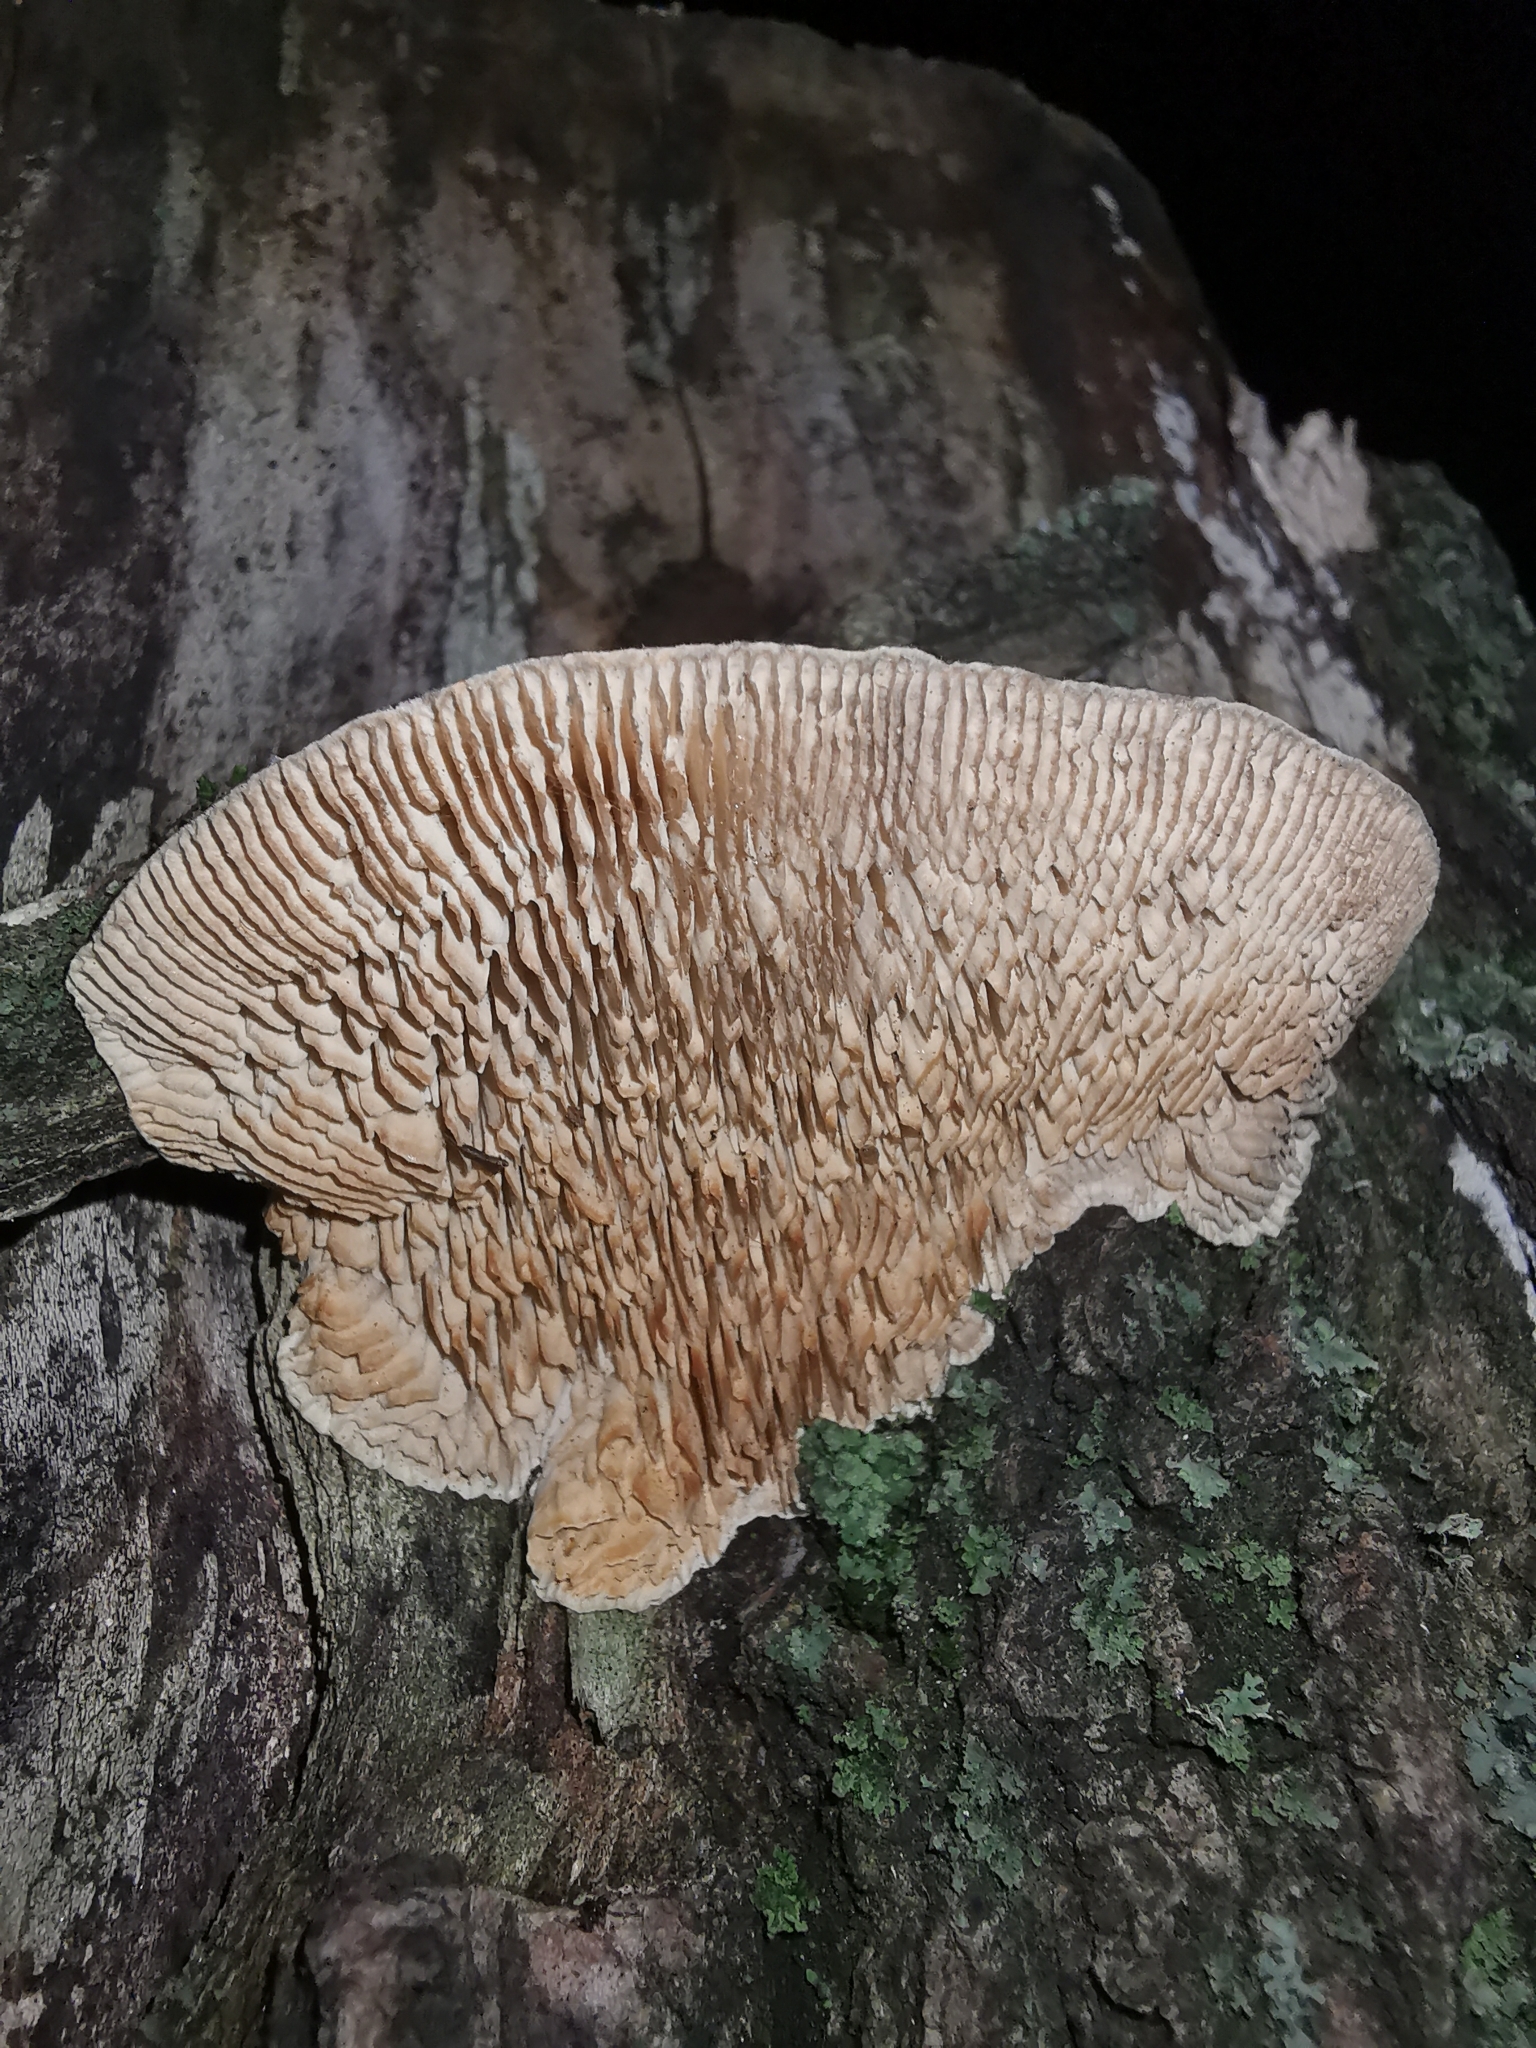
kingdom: Fungi
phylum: Basidiomycota
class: Agaricomycetes
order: Polyporales
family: Fomitopsidaceae
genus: Fomitopsis
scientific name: Fomitopsis
